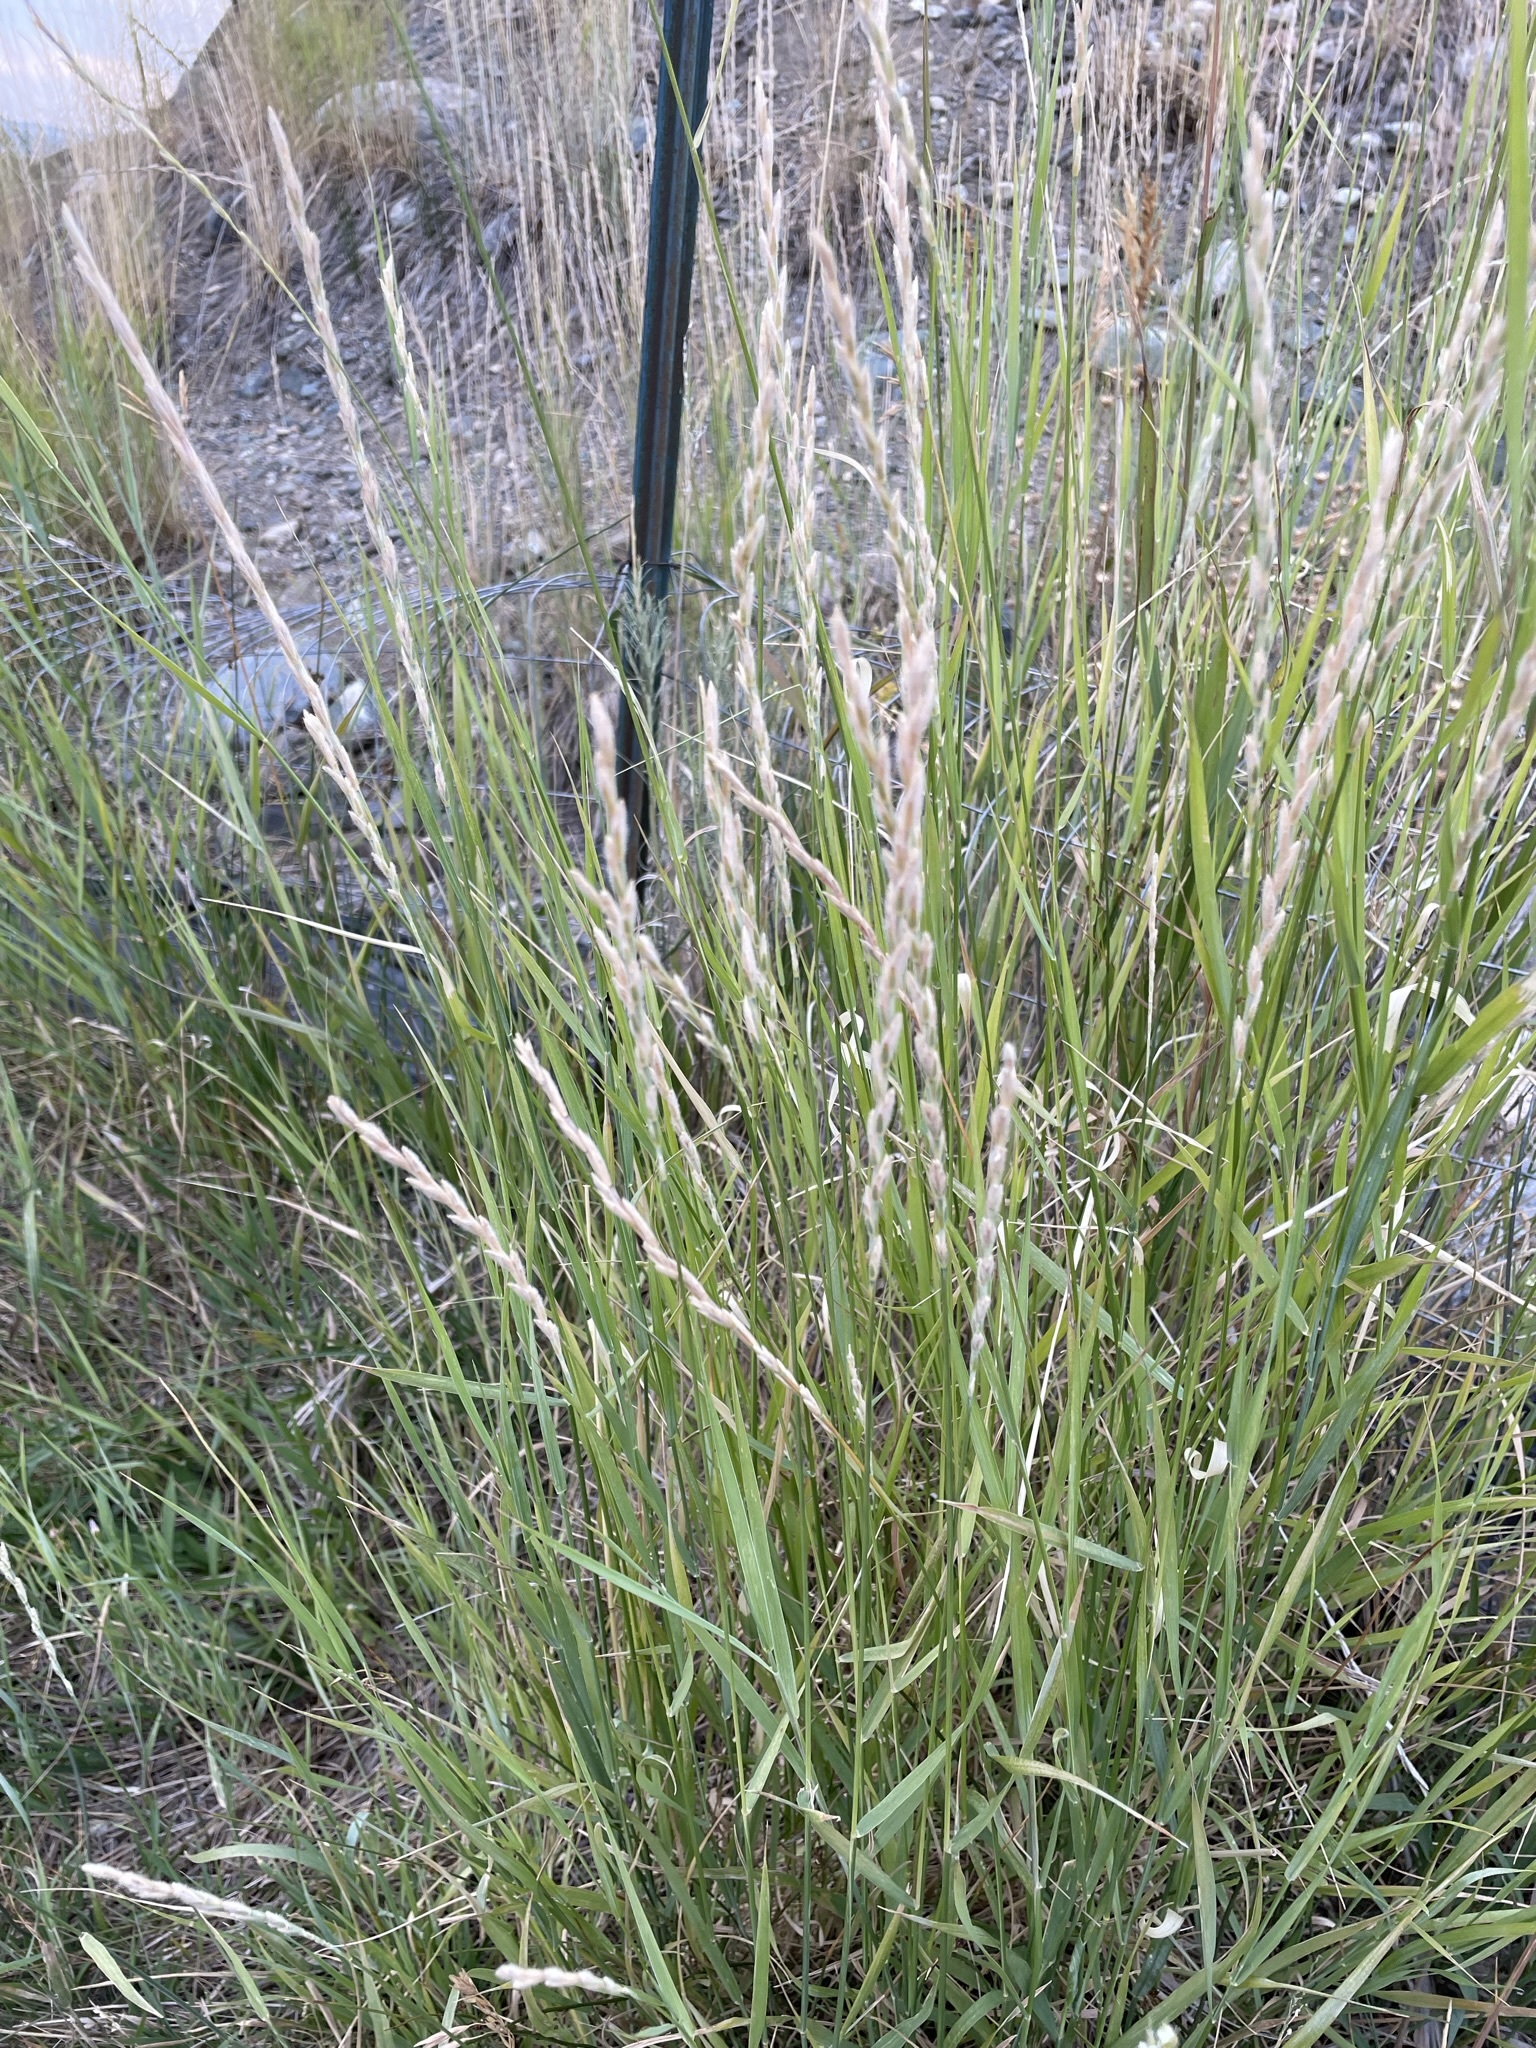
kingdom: Plantae
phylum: Tracheophyta
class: Liliopsida
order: Poales
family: Poaceae
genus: Thinopyrum
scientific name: Thinopyrum intermedium
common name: Intermediate wheatgrass
